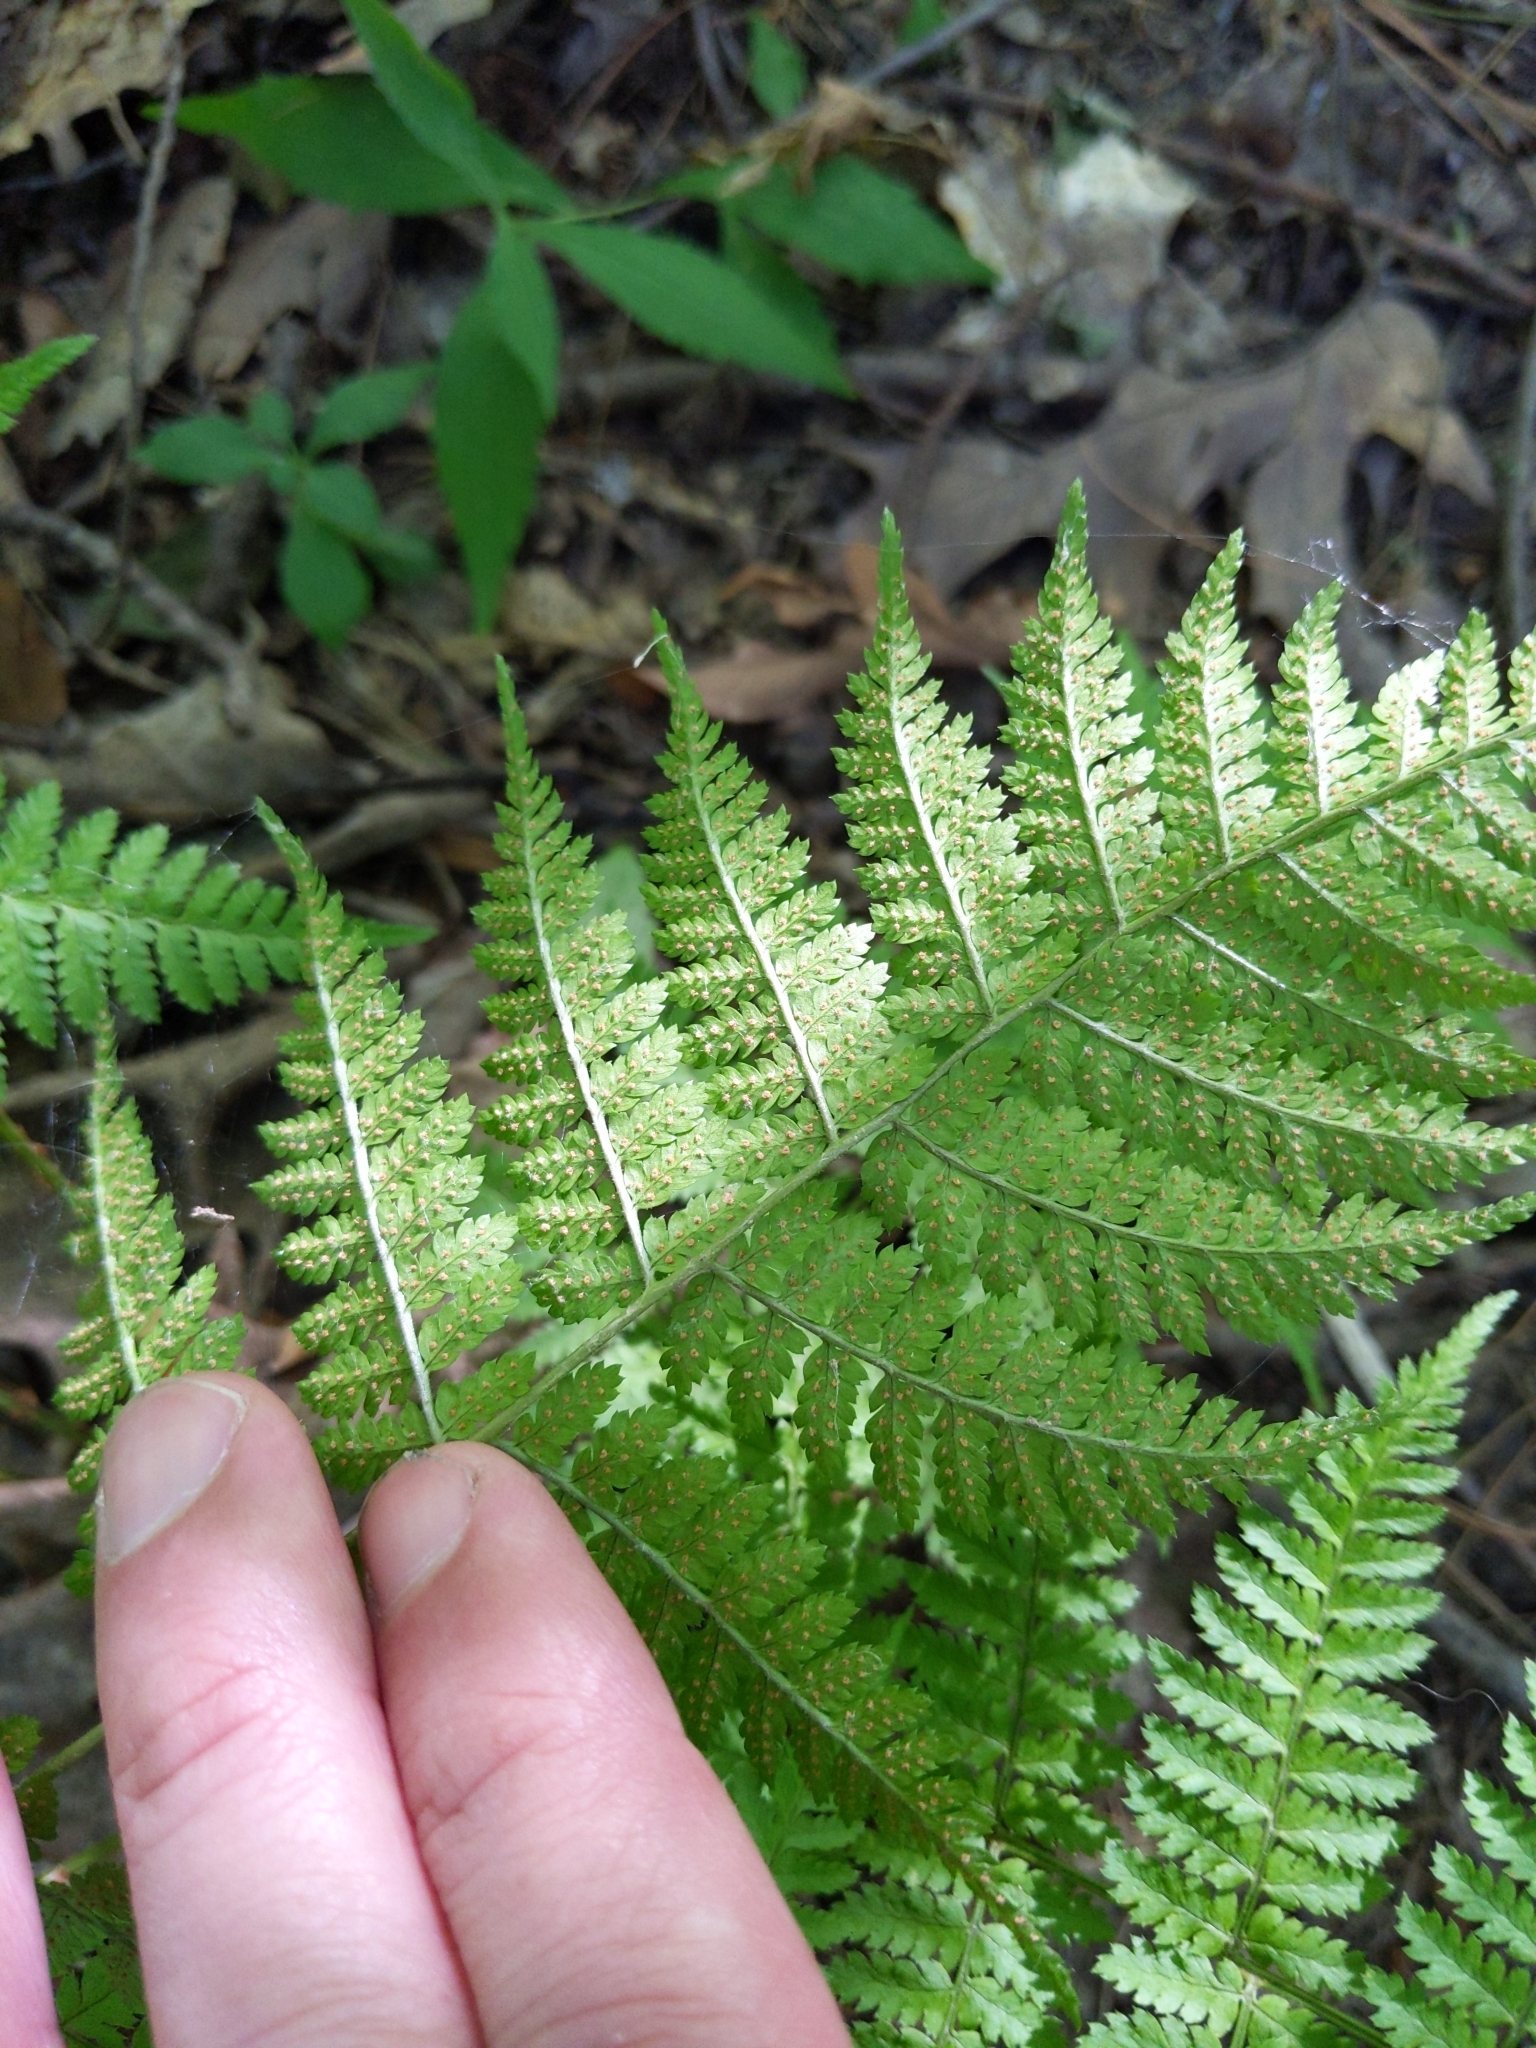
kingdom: Plantae
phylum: Tracheophyta
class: Polypodiopsida
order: Polypodiales
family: Dryopteridaceae
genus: Dryopteris
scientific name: Dryopteris intermedia
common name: Evergreen wood fern
